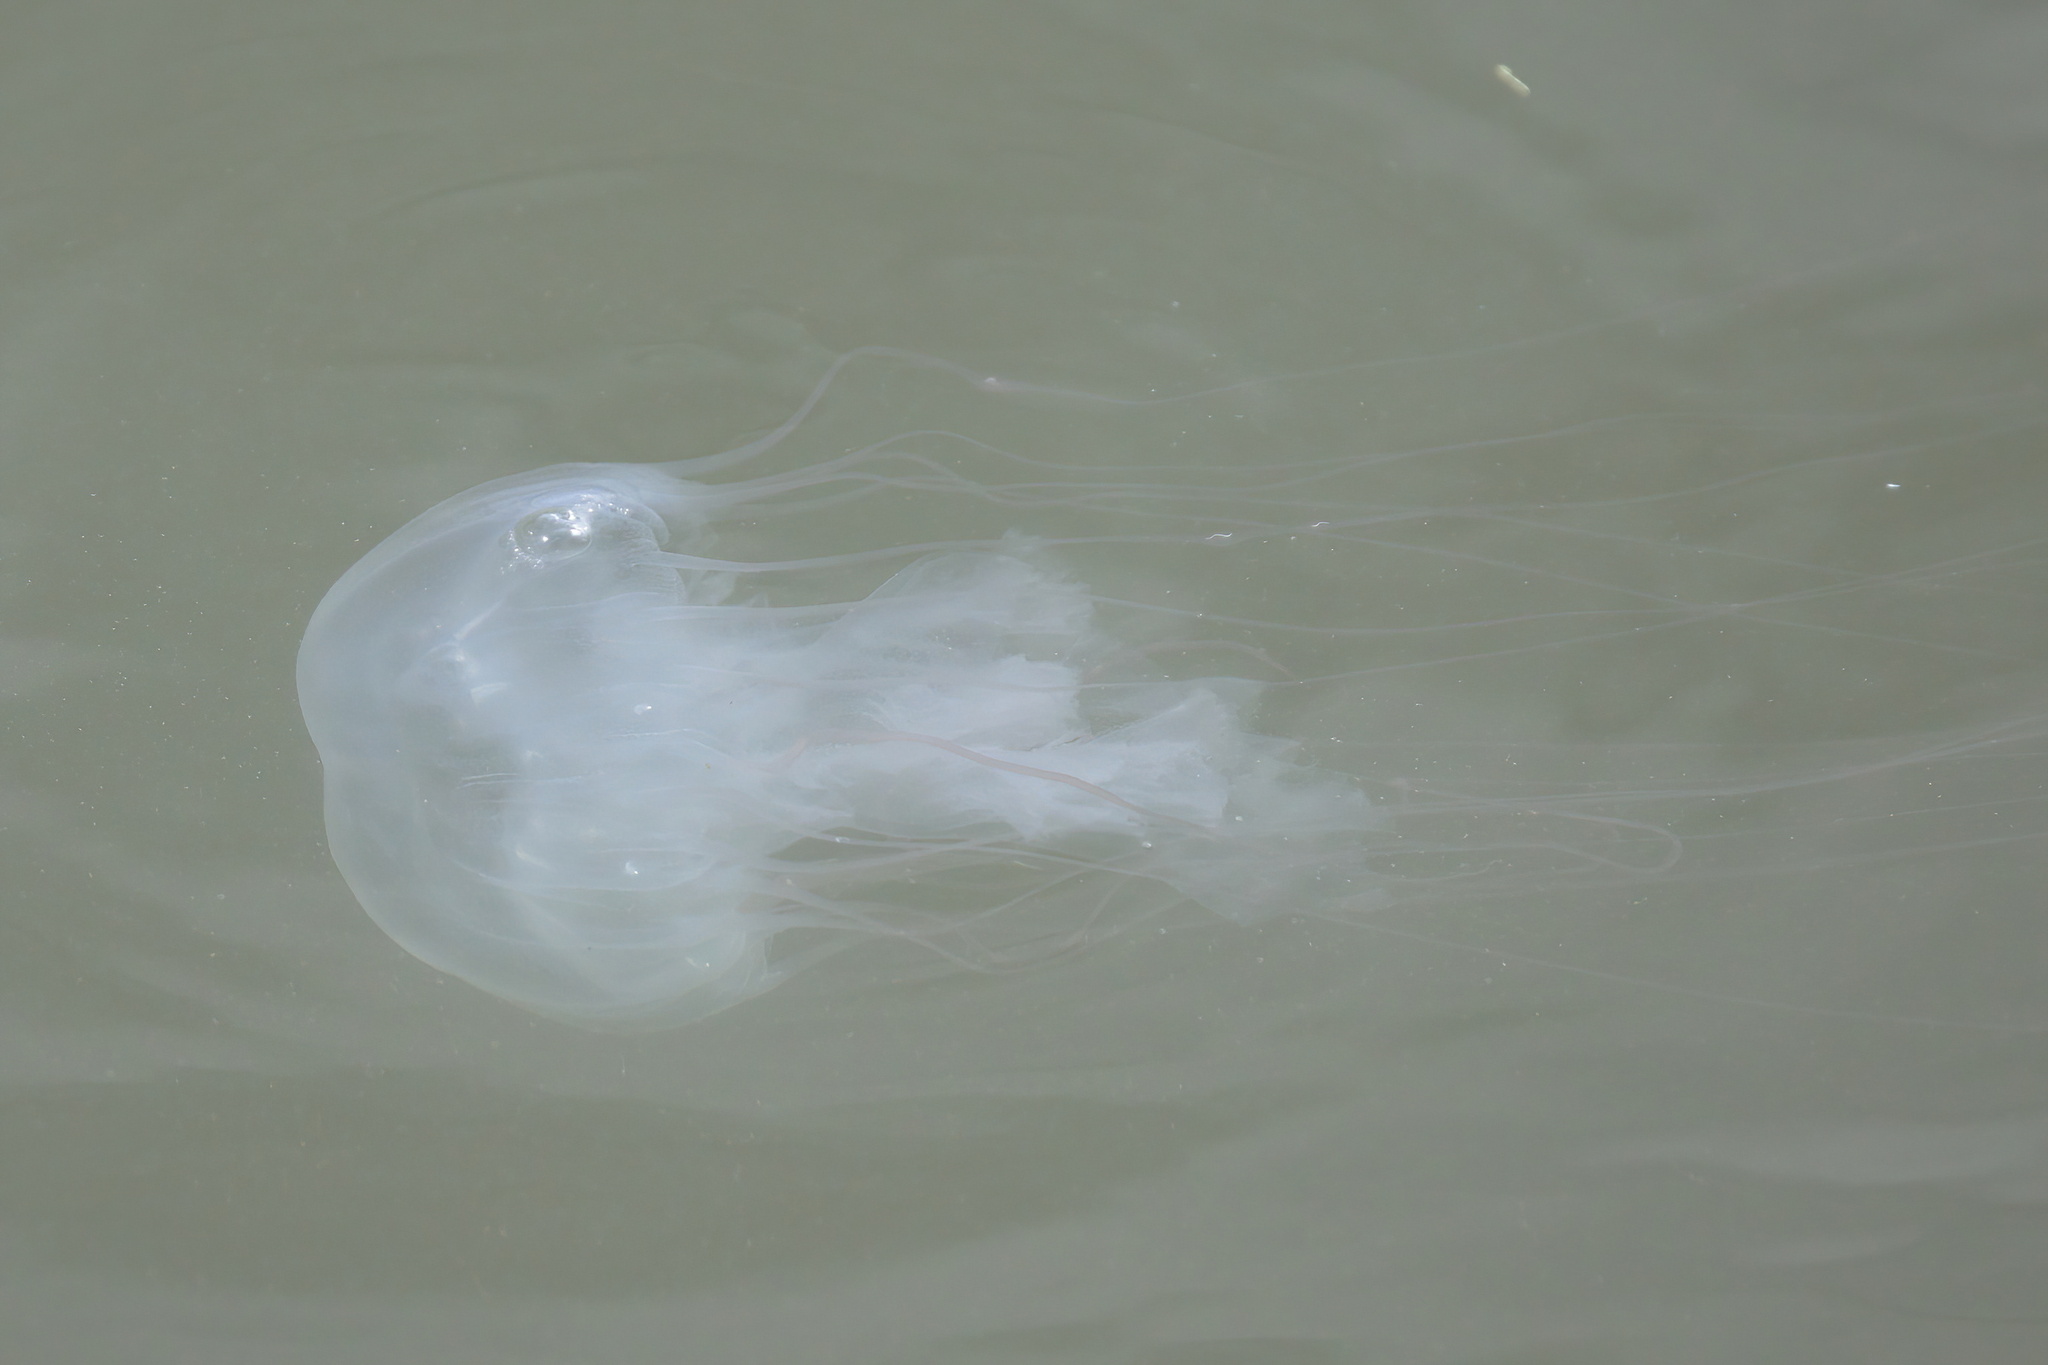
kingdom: Animalia
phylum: Cnidaria
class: Scyphozoa
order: Semaeostomeae
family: Pelagiidae
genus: Chrysaora
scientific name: Chrysaora chesapeakei
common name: Bay nettle
